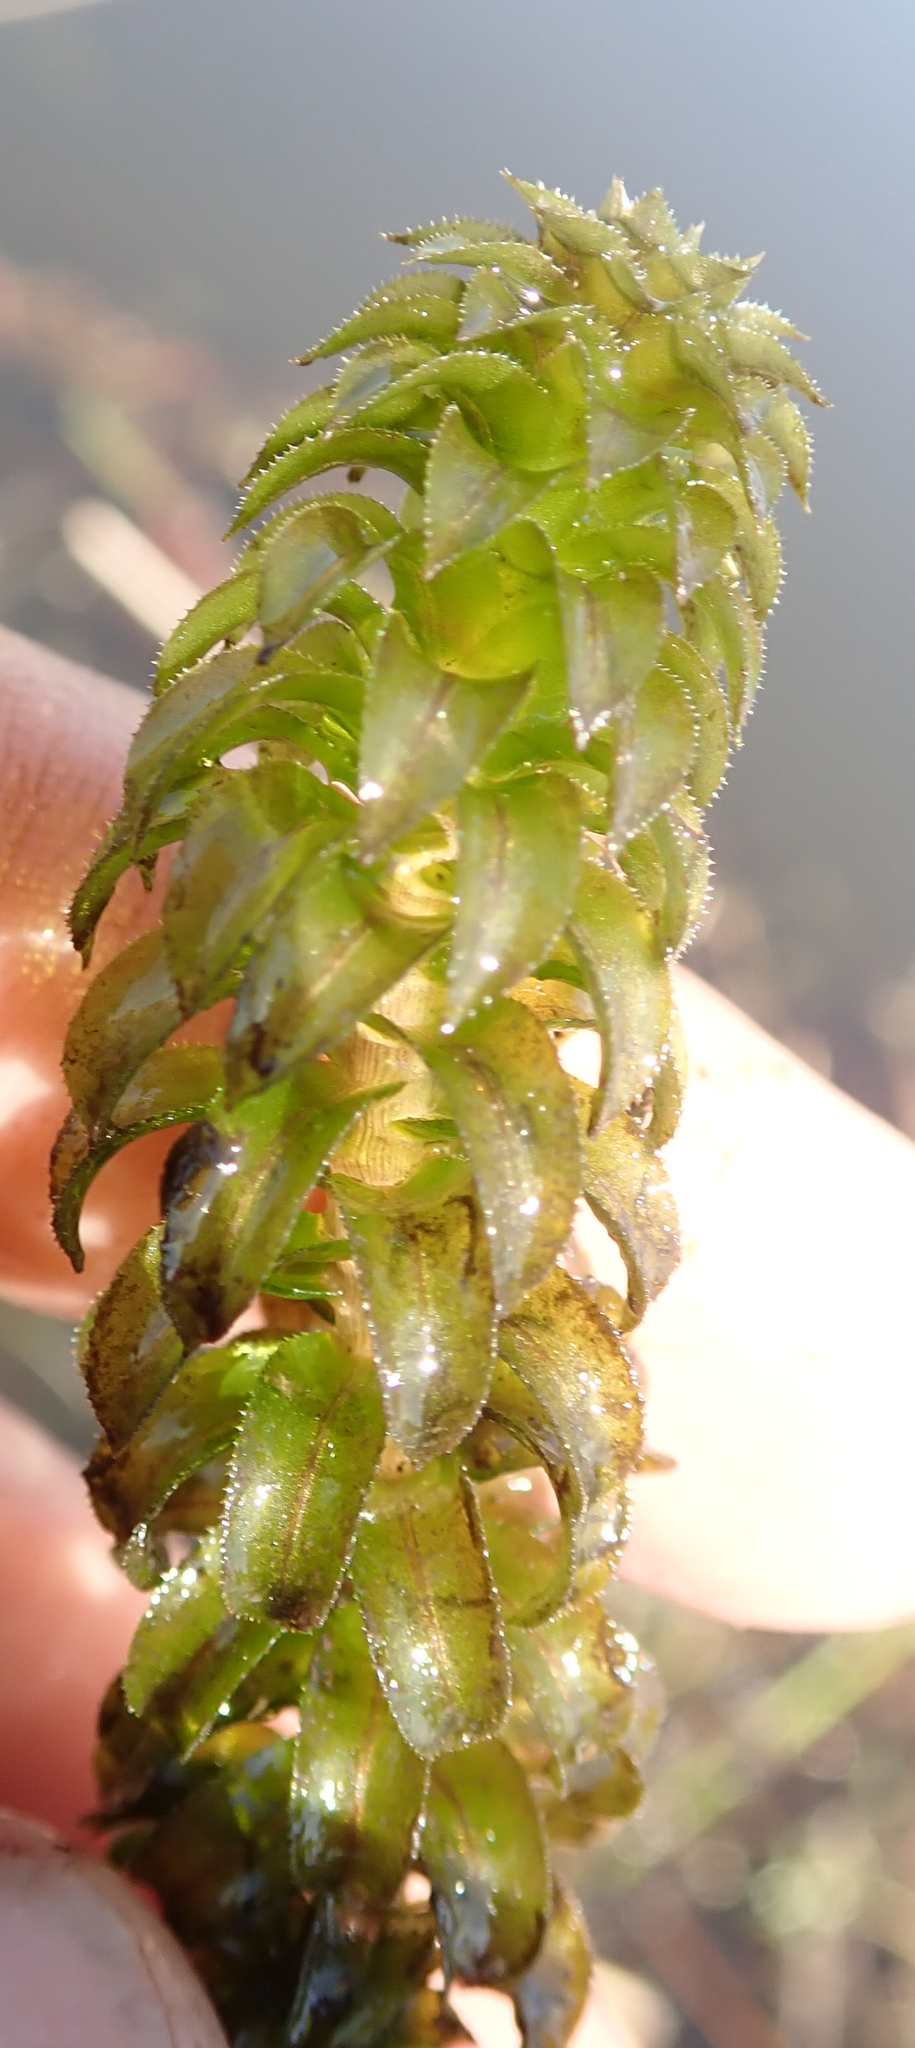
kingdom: Plantae
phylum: Tracheophyta
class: Liliopsida
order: Alismatales
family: Hydrocharitaceae
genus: Lagarosiphon
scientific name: Lagarosiphon ilicifolius
